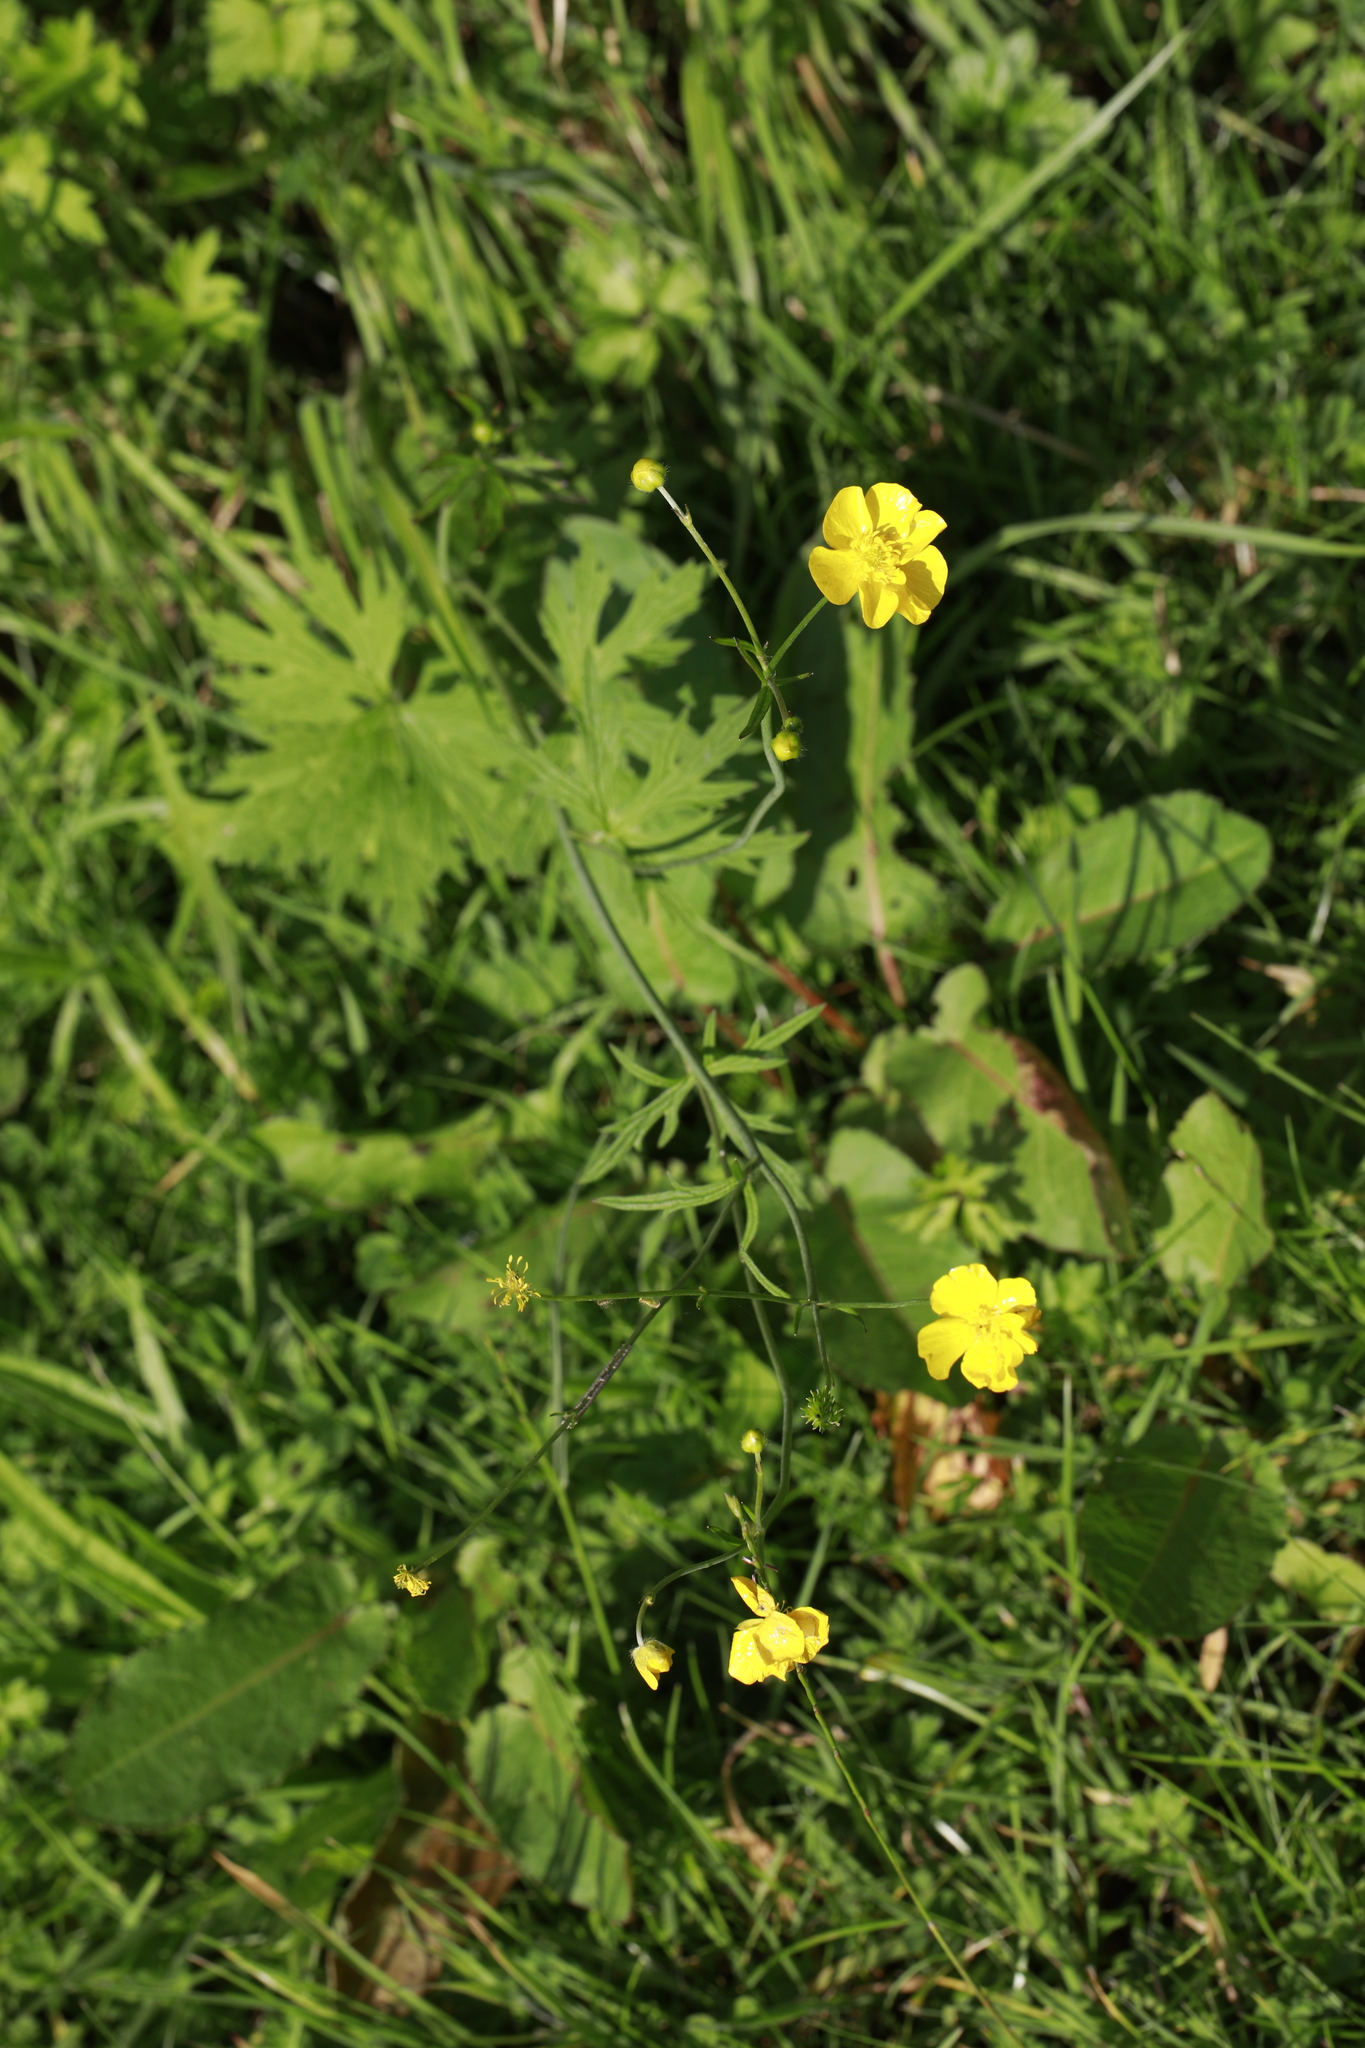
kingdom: Plantae
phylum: Tracheophyta
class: Magnoliopsida
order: Ranunculales
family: Ranunculaceae
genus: Ranunculus
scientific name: Ranunculus acris
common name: Meadow buttercup
